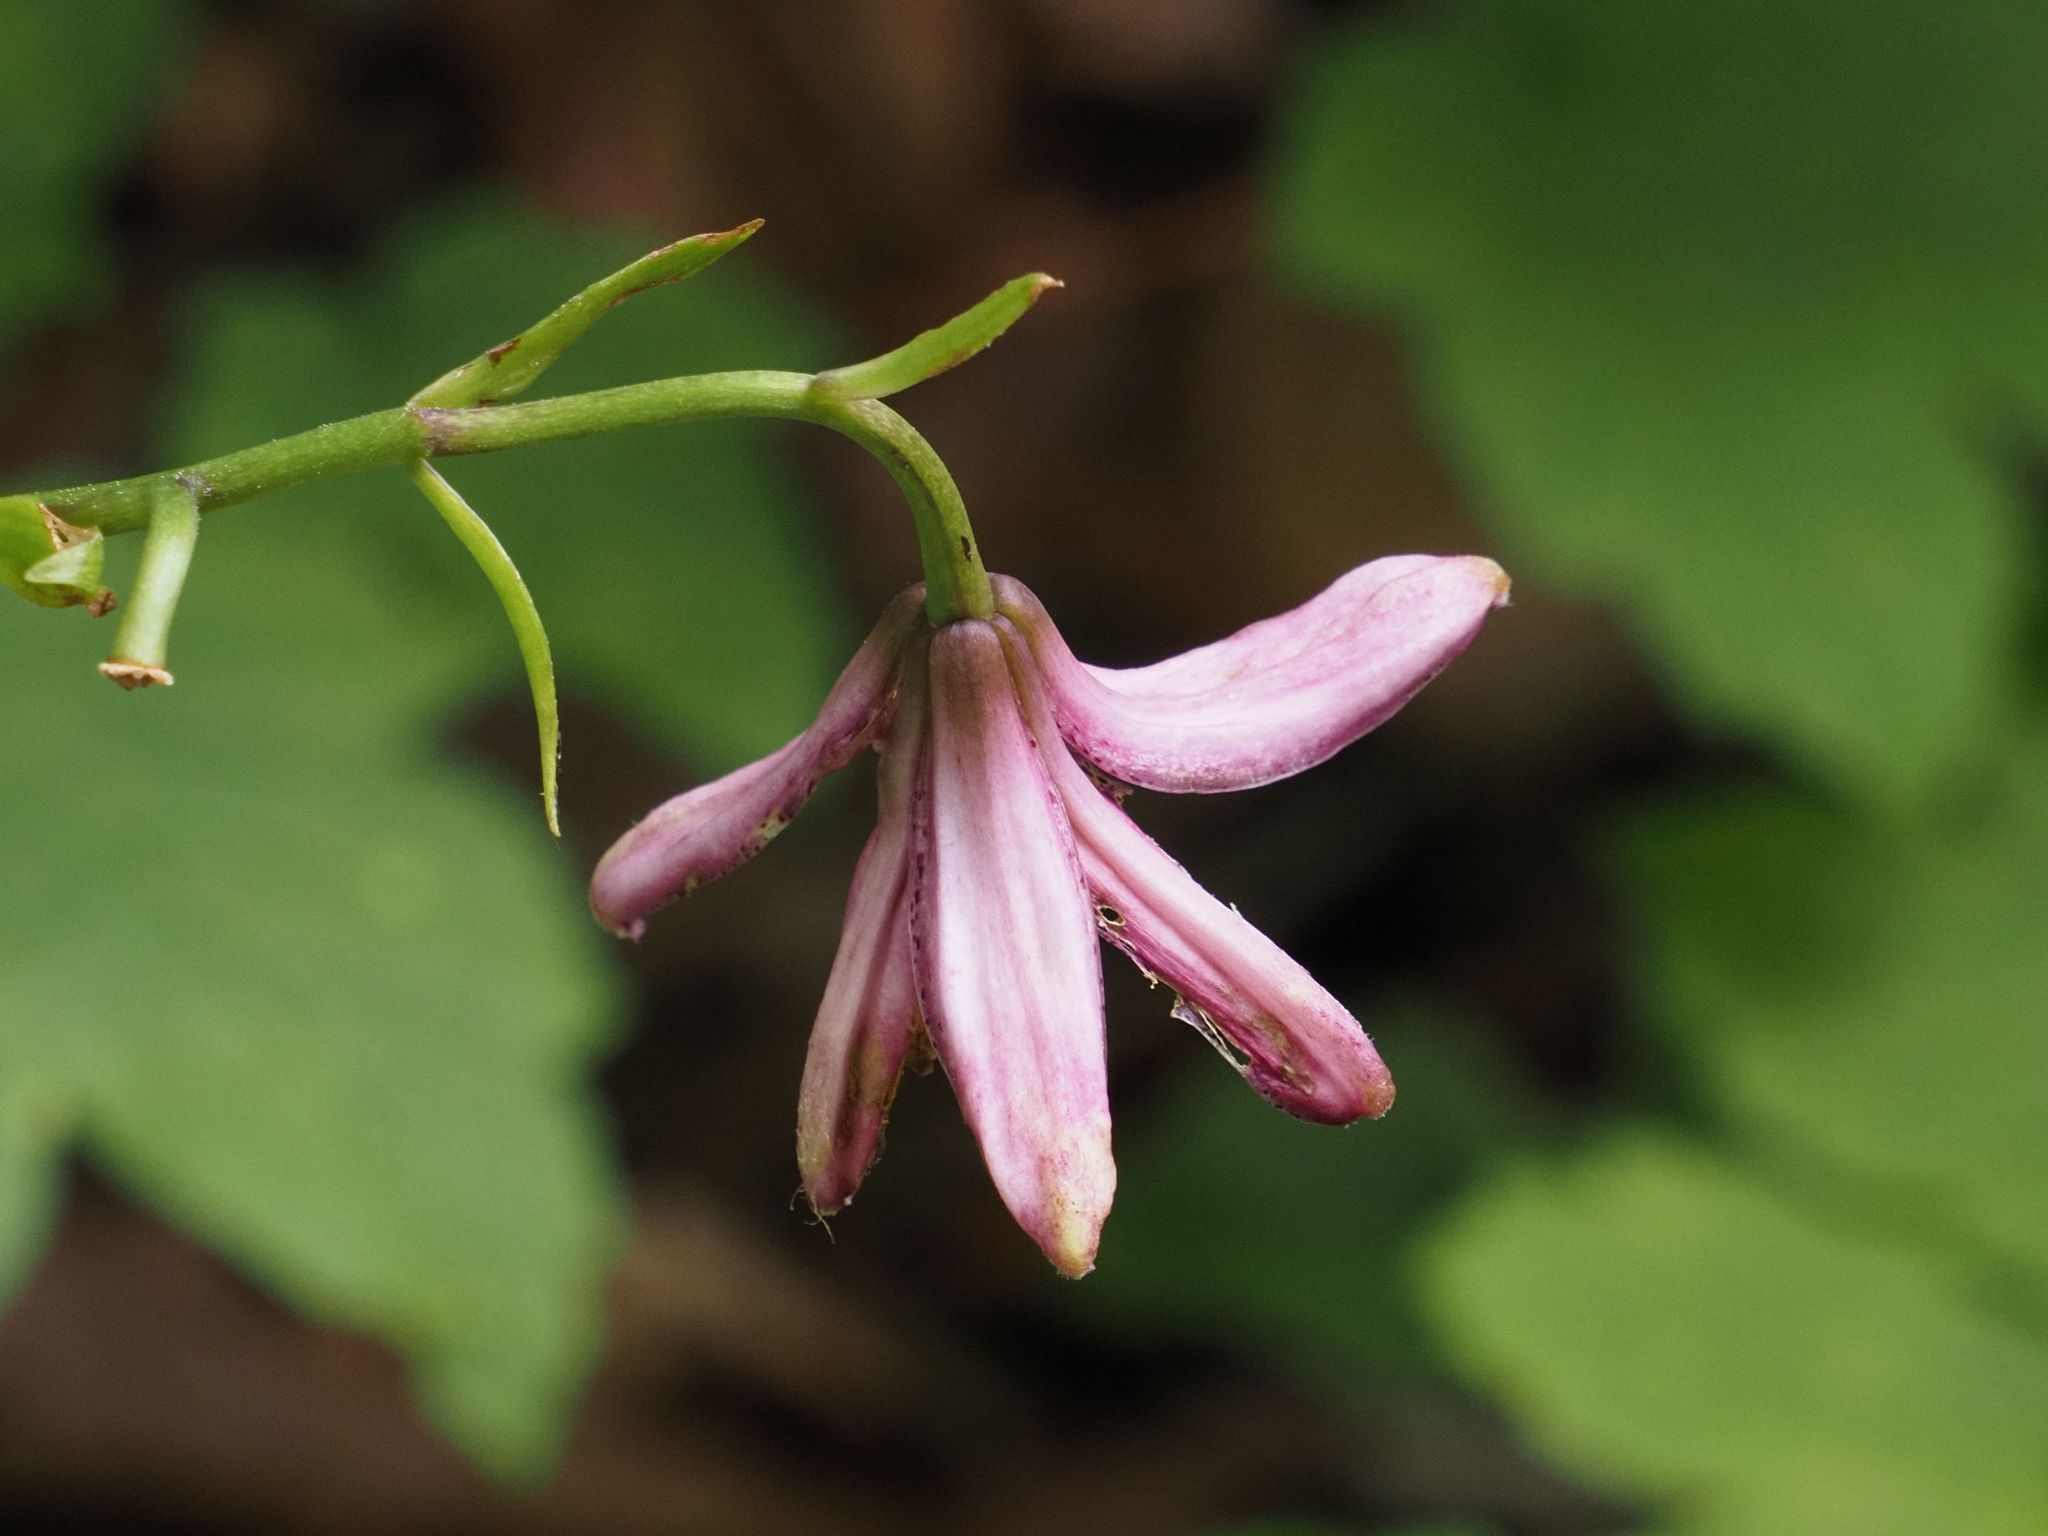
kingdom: Plantae
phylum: Tracheophyta
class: Liliopsida
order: Liliales
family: Liliaceae
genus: Lilium
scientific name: Lilium martagon
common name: Martagon lily
